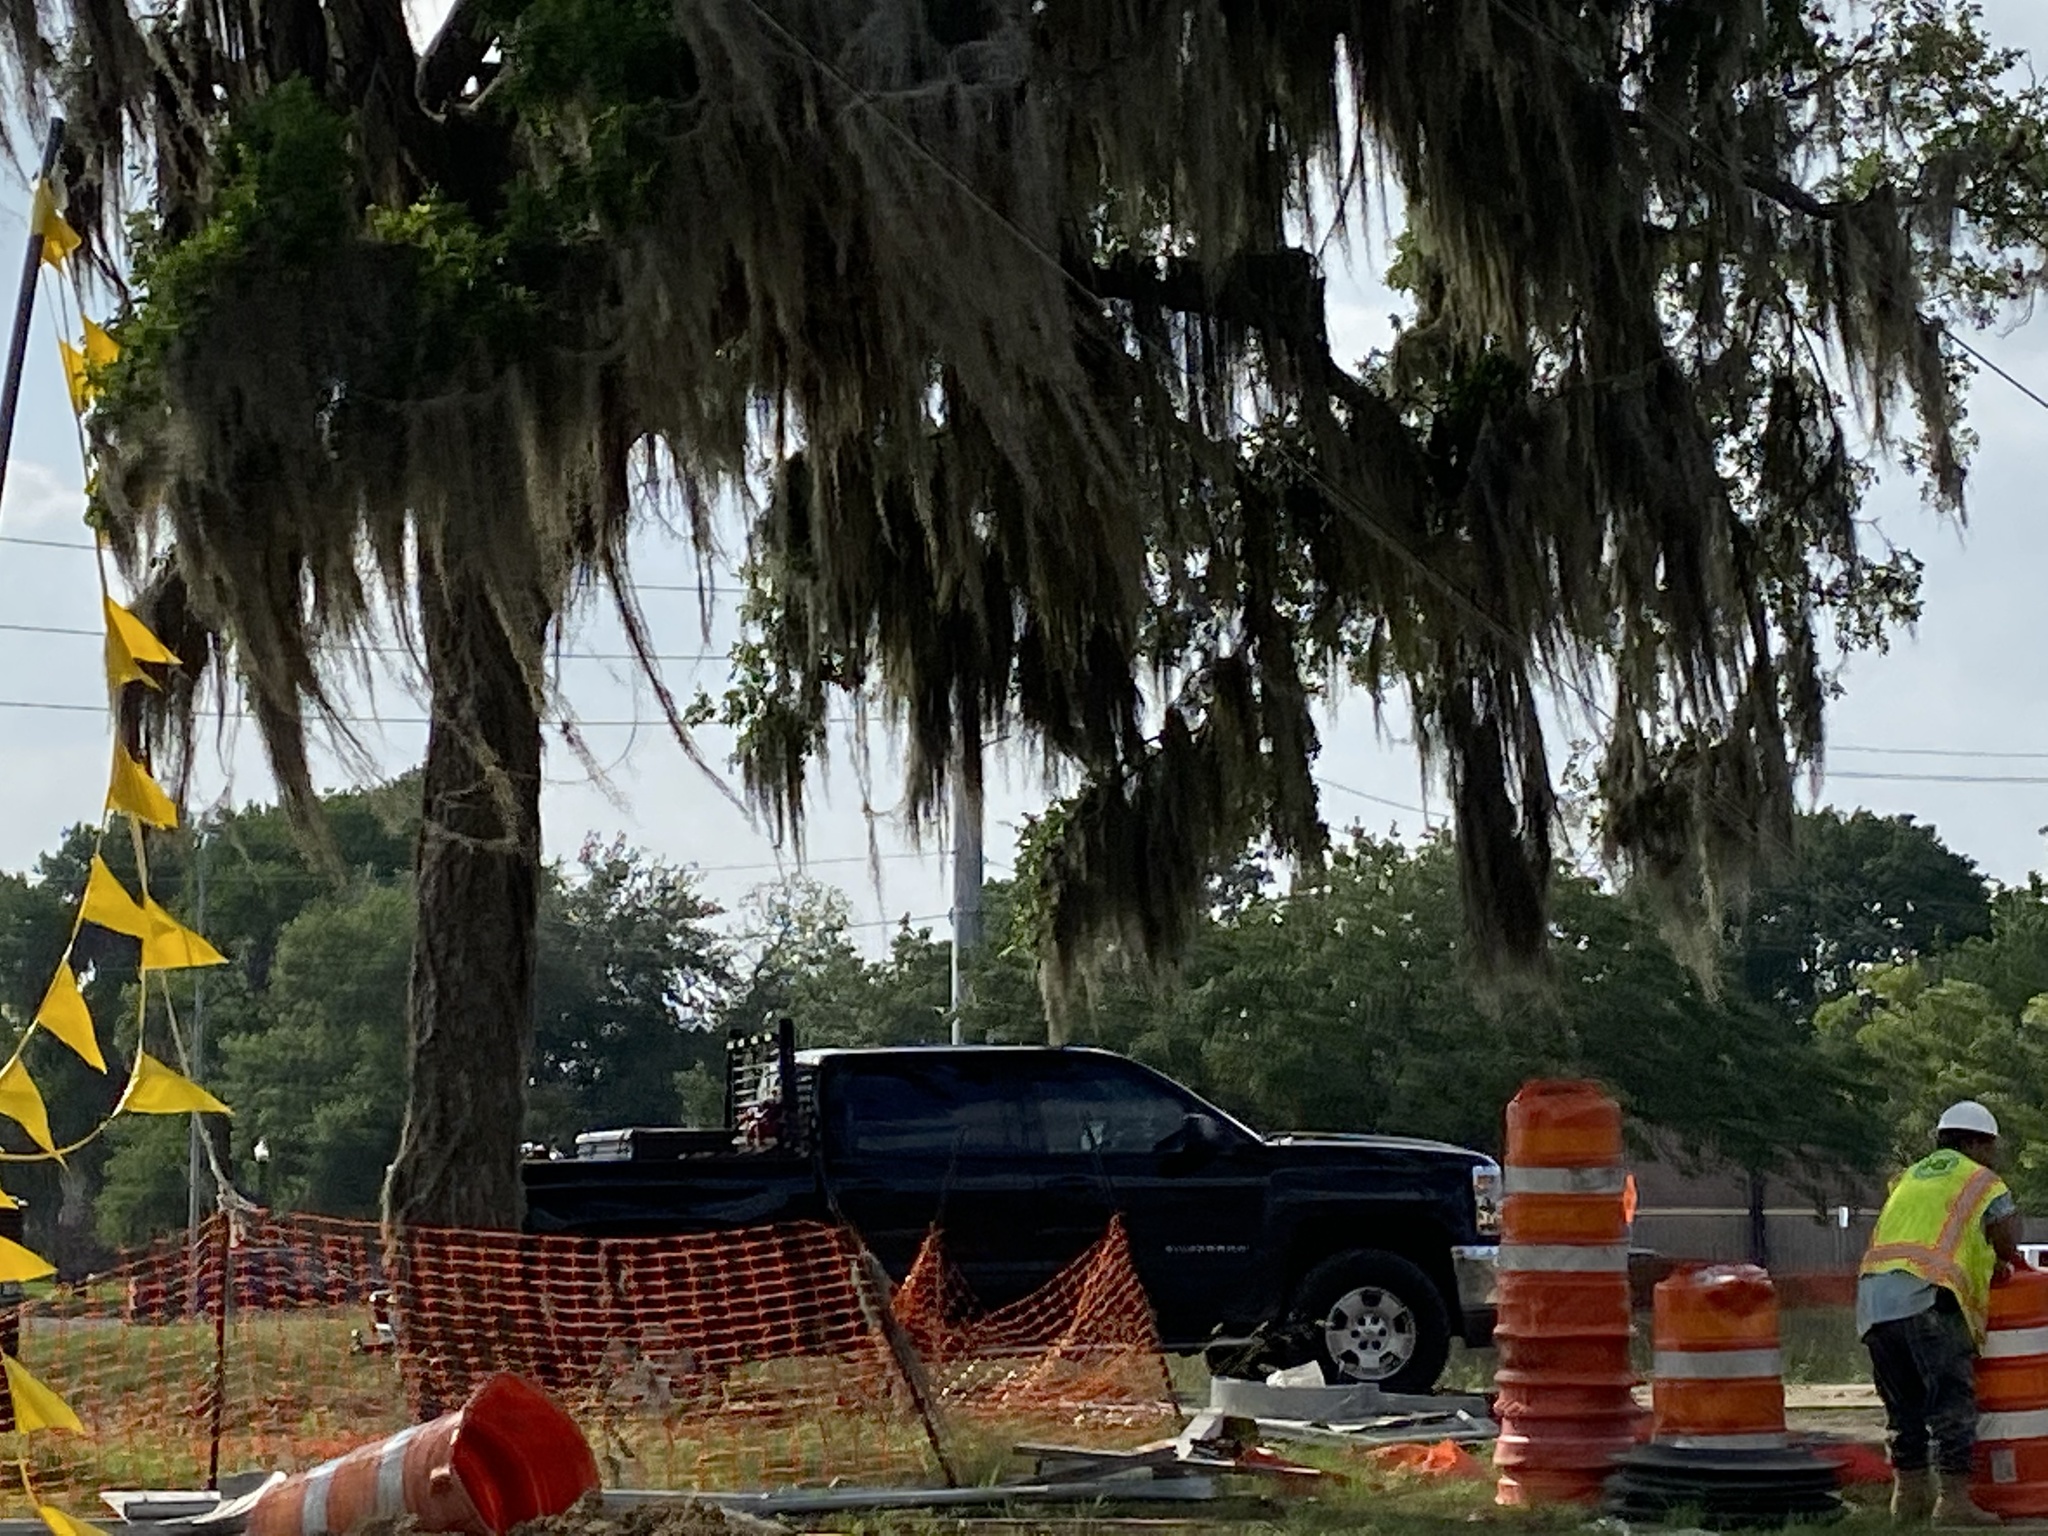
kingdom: Plantae
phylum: Tracheophyta
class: Liliopsida
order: Poales
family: Bromeliaceae
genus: Tillandsia
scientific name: Tillandsia usneoides
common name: Spanish moss
